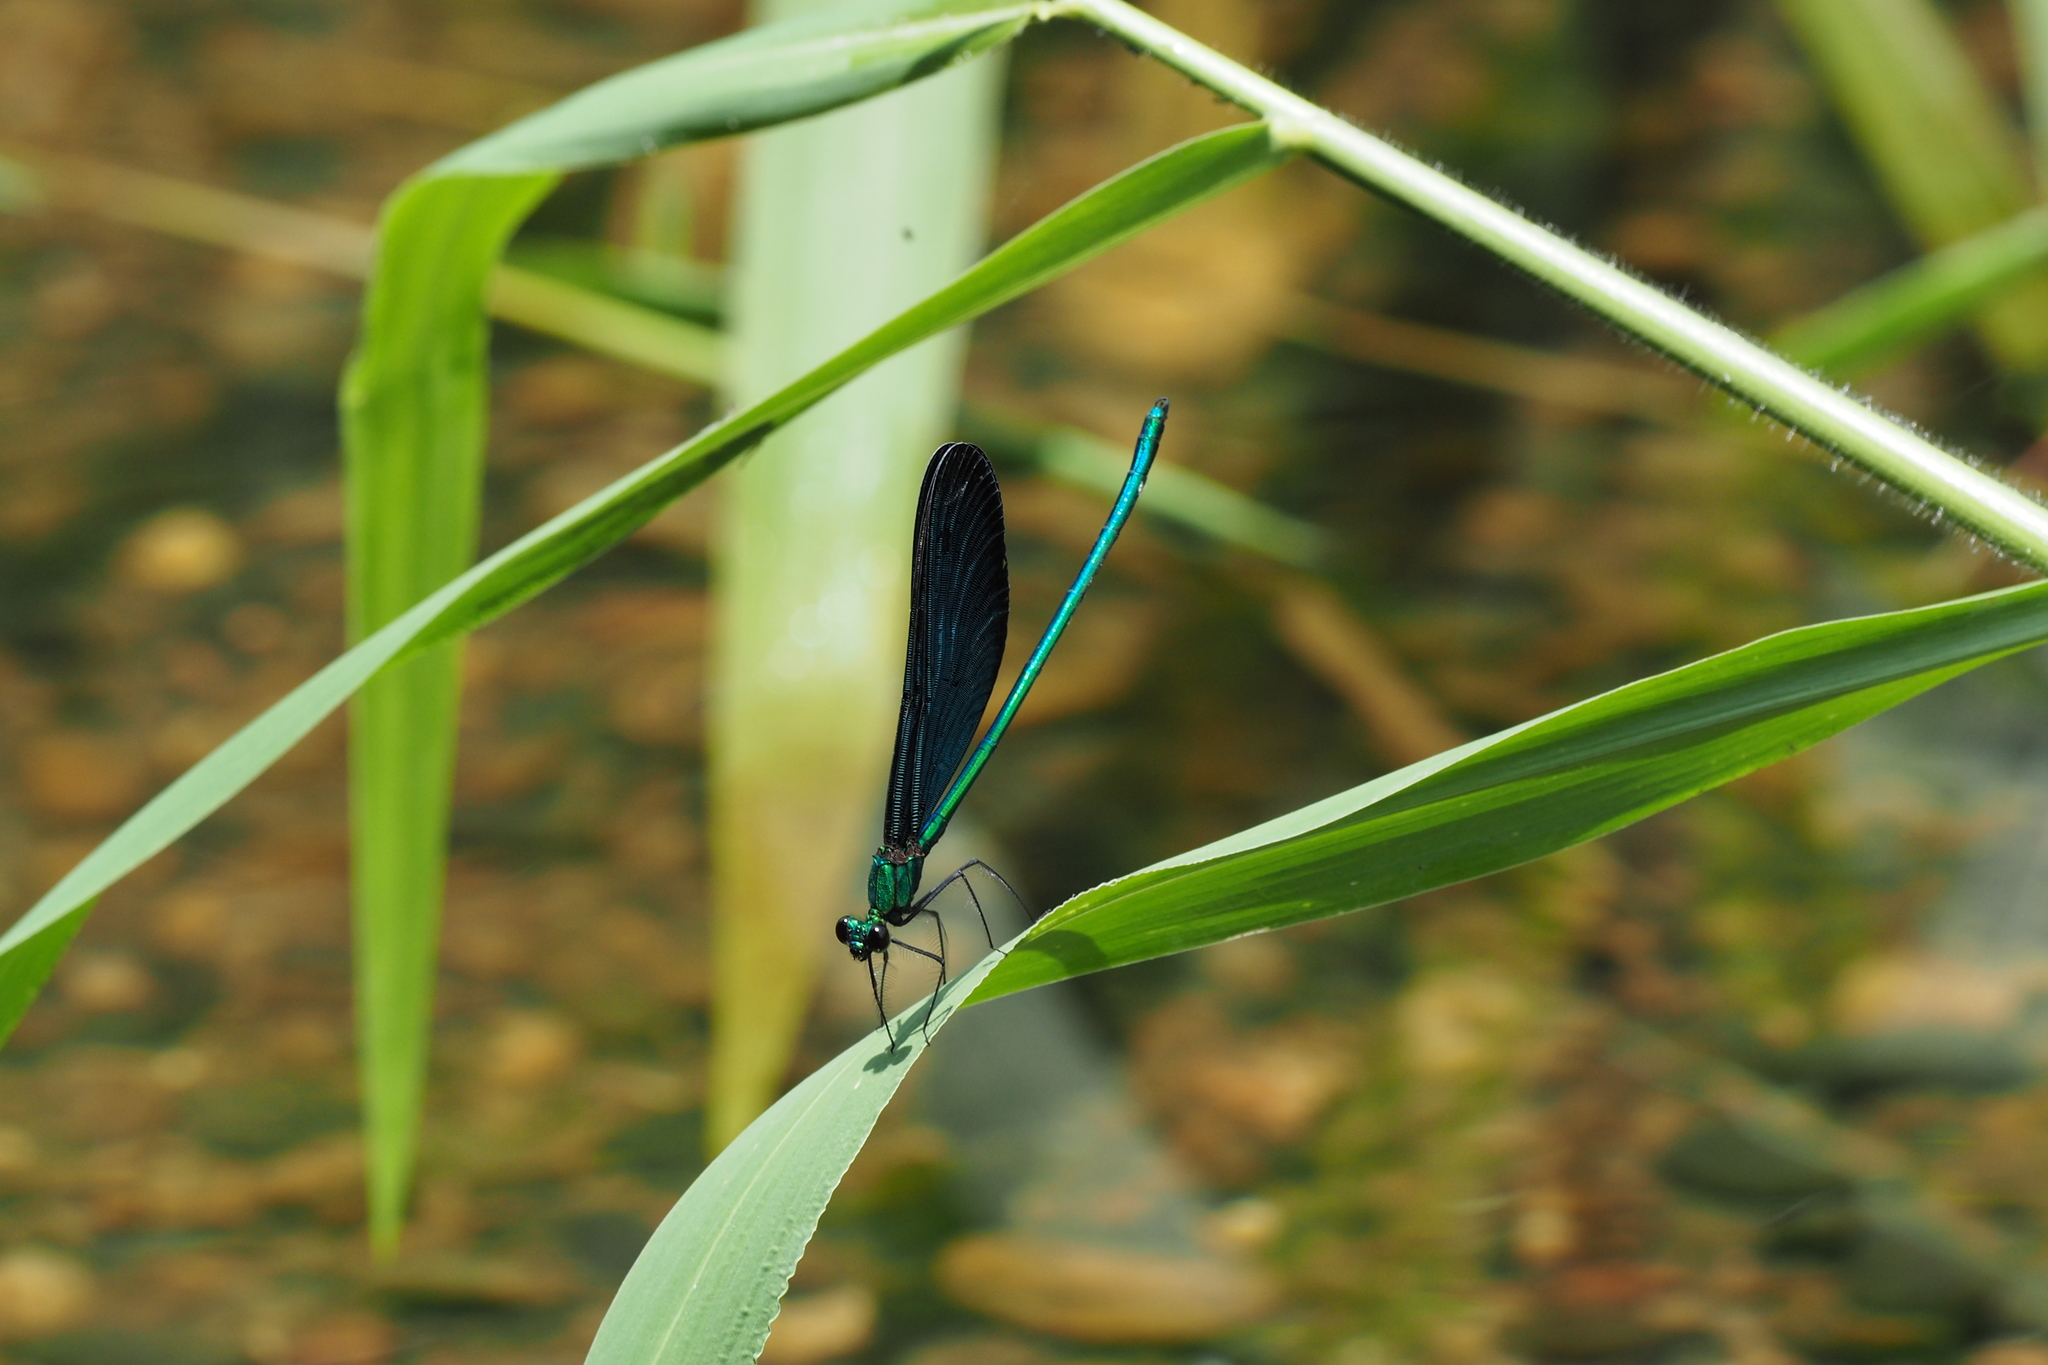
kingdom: Animalia
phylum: Arthropoda
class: Insecta
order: Odonata
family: Calopterygidae
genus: Matrona
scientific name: Matrona cyanoptera
